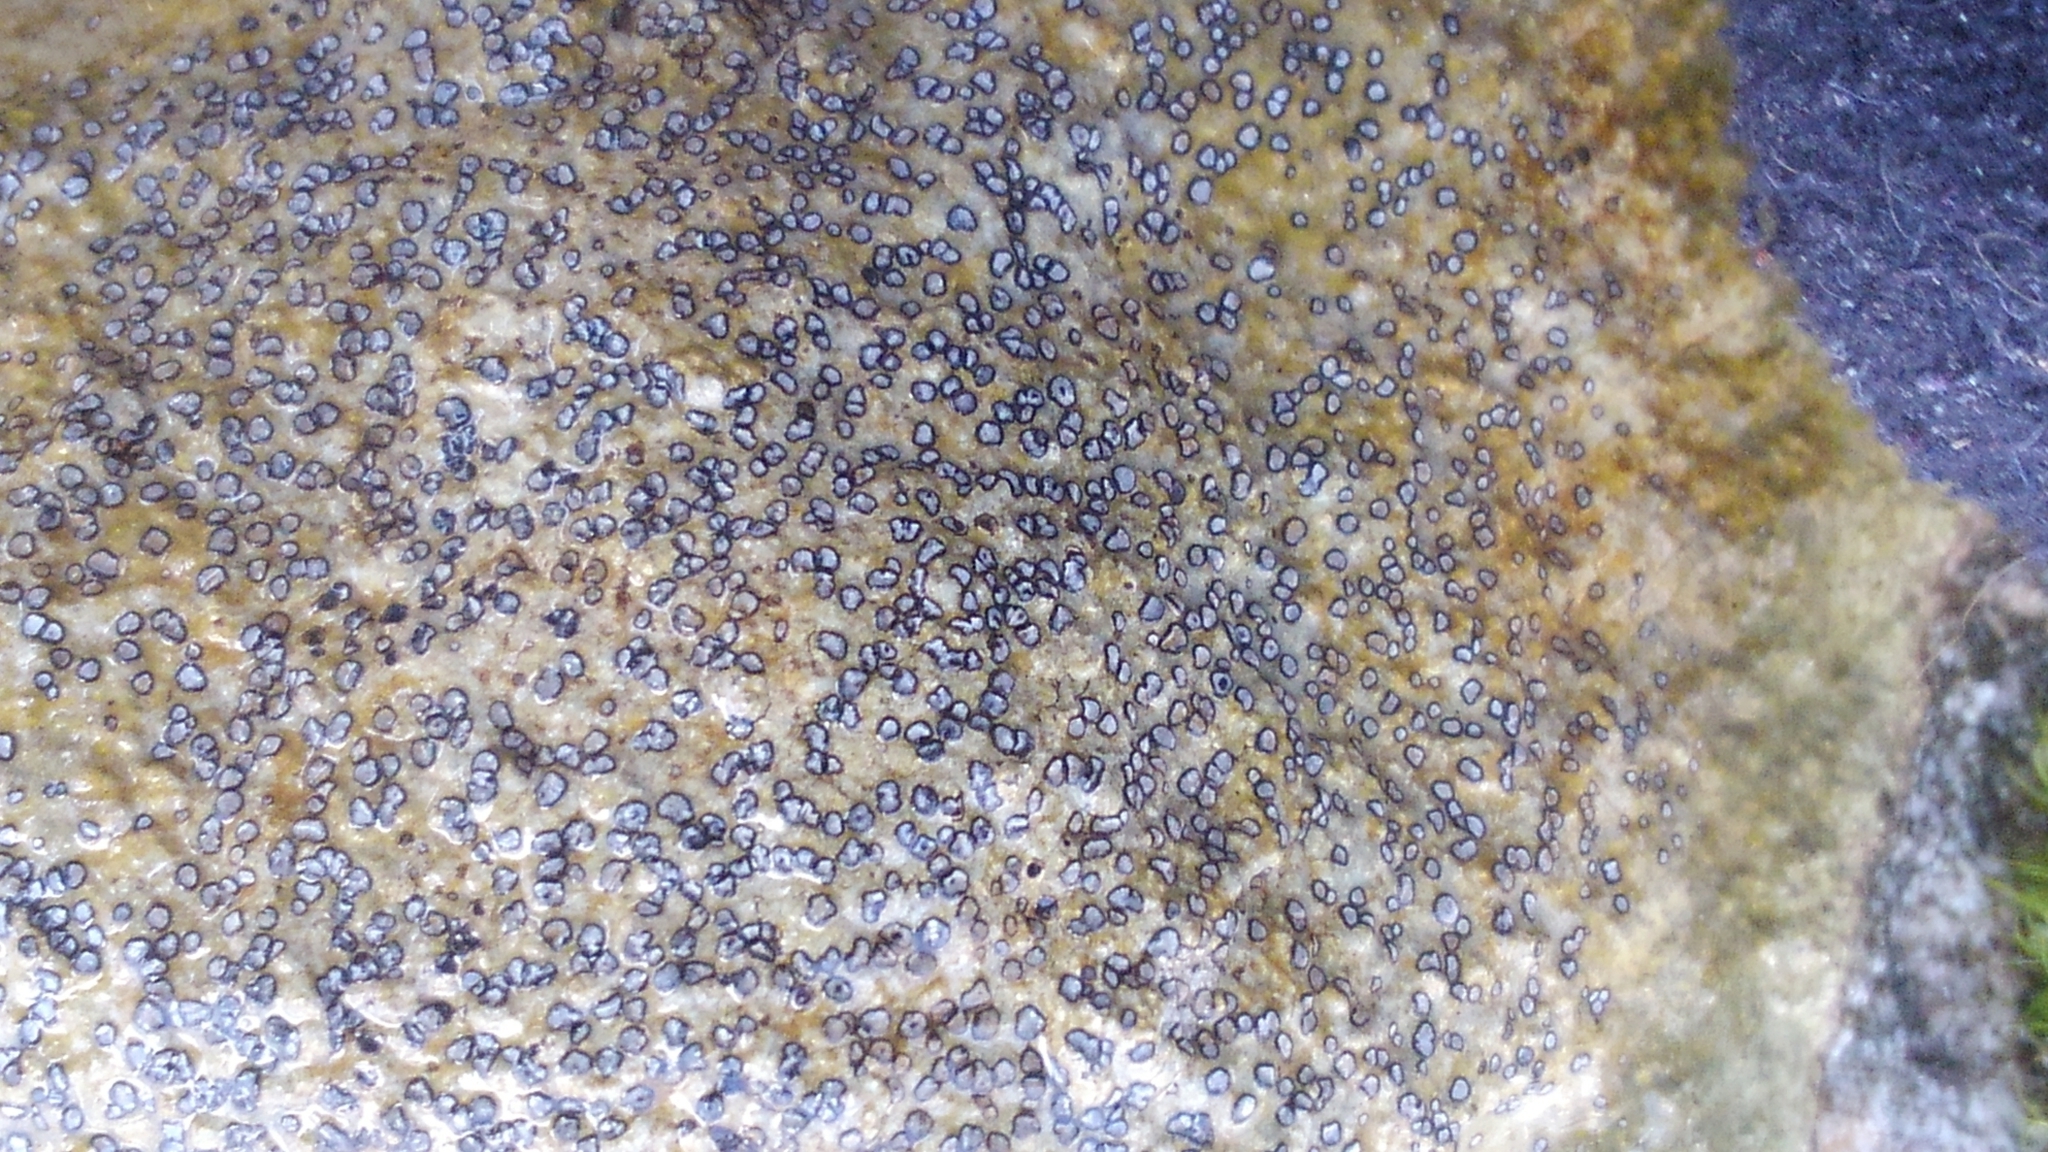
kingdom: Fungi
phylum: Ascomycota
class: Lecanoromycetes
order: Lecideales
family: Lecideaceae
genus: Porpidia
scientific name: Porpidia albocaerulescens
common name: Smokey-eyed boulder lichen
